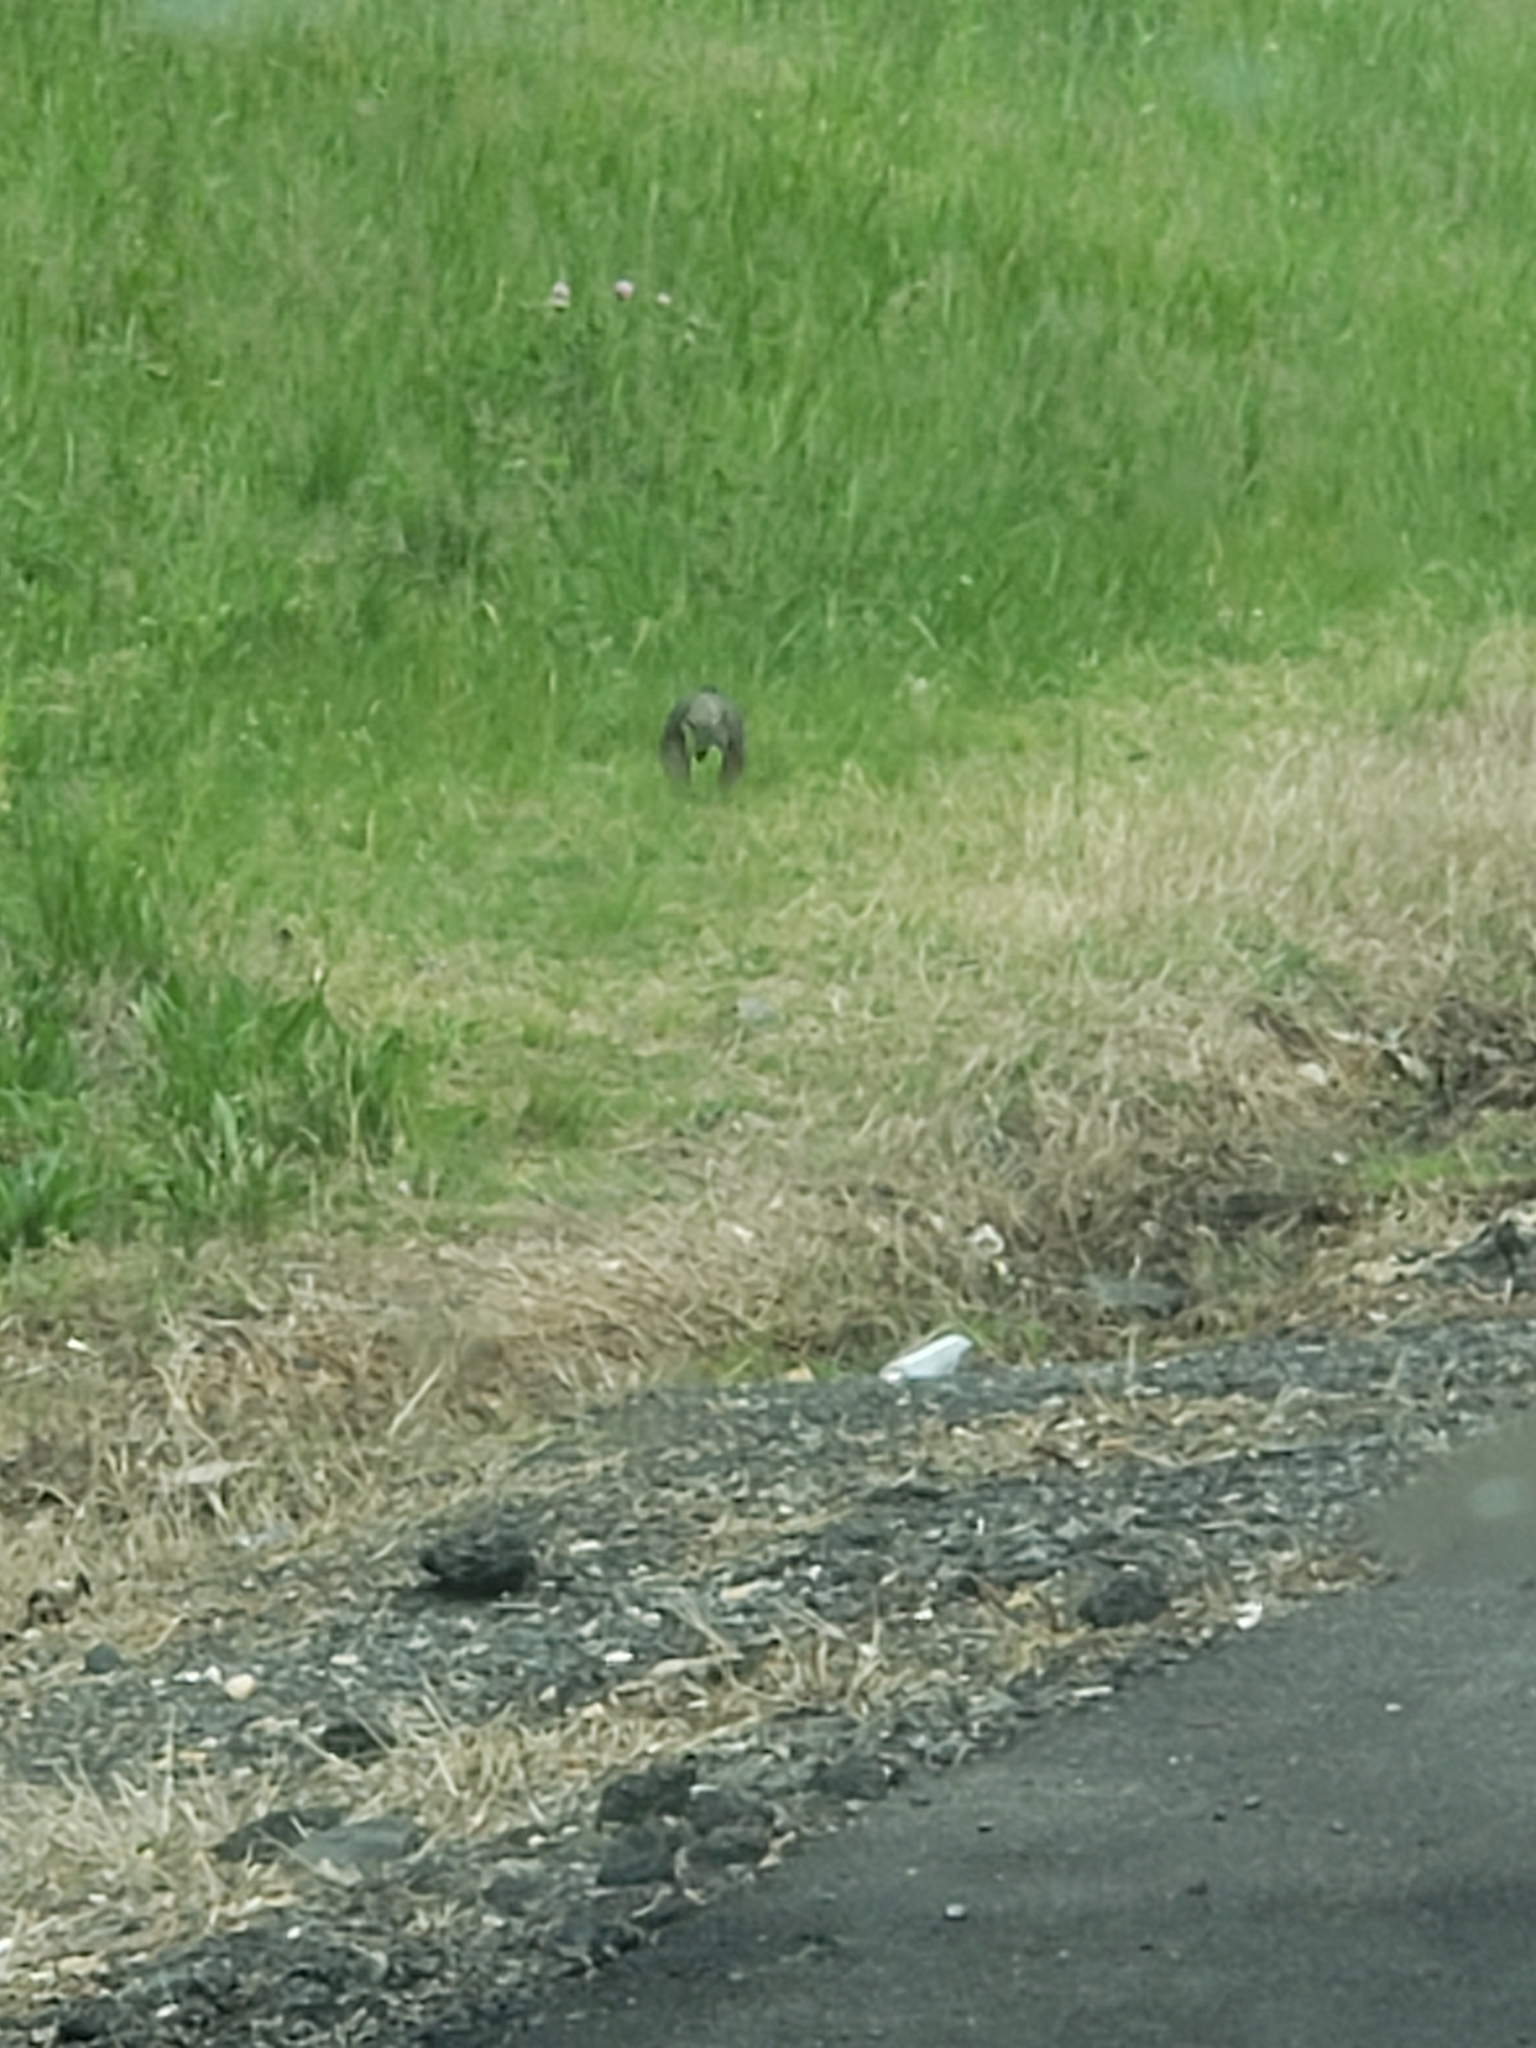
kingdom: Animalia
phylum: Chordata
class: Aves
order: Passeriformes
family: Turdidae
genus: Turdus
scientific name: Turdus migratorius
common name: American robin
